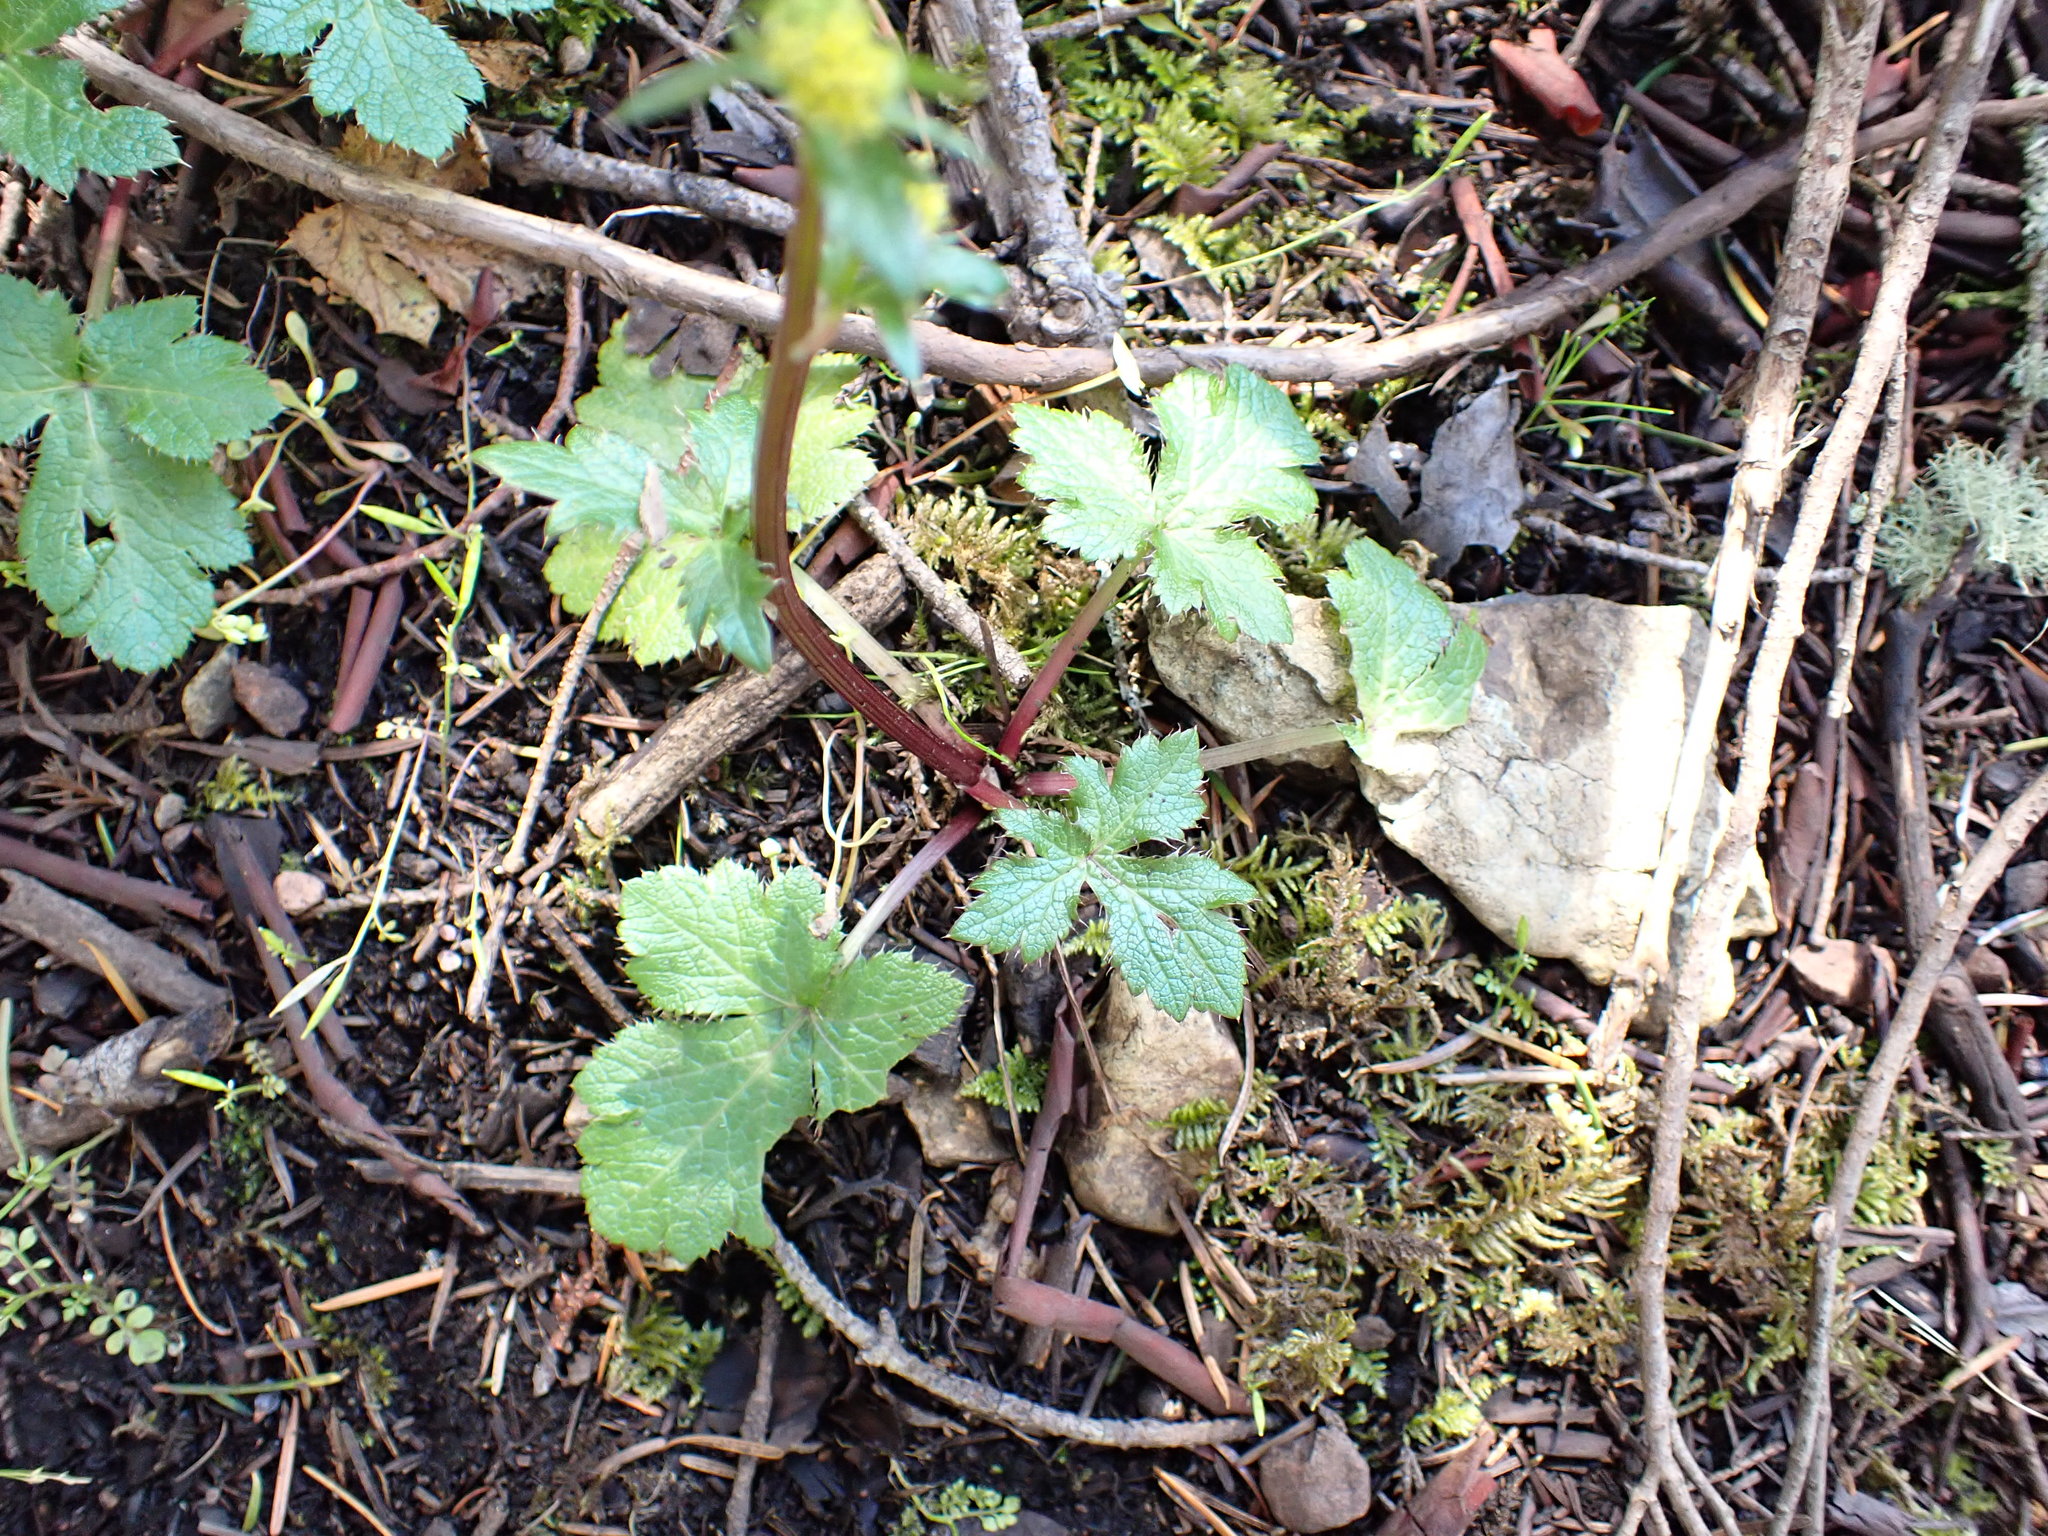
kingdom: Plantae
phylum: Tracheophyta
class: Magnoliopsida
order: Apiales
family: Apiaceae
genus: Sanicula
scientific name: Sanicula crassicaulis
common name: Western snakeroot
